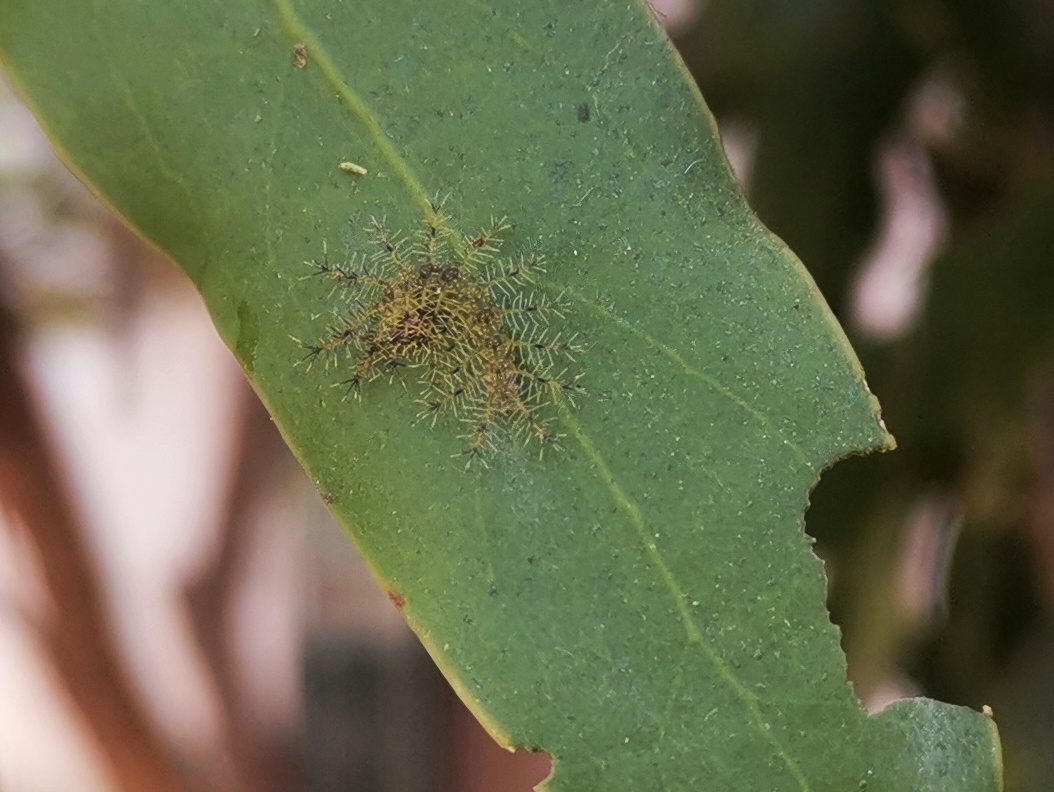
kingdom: Animalia
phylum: Arthropoda
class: Insecta
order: Lepidoptera
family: Nymphalidae
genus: Euthalia
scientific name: Euthalia lubentina
